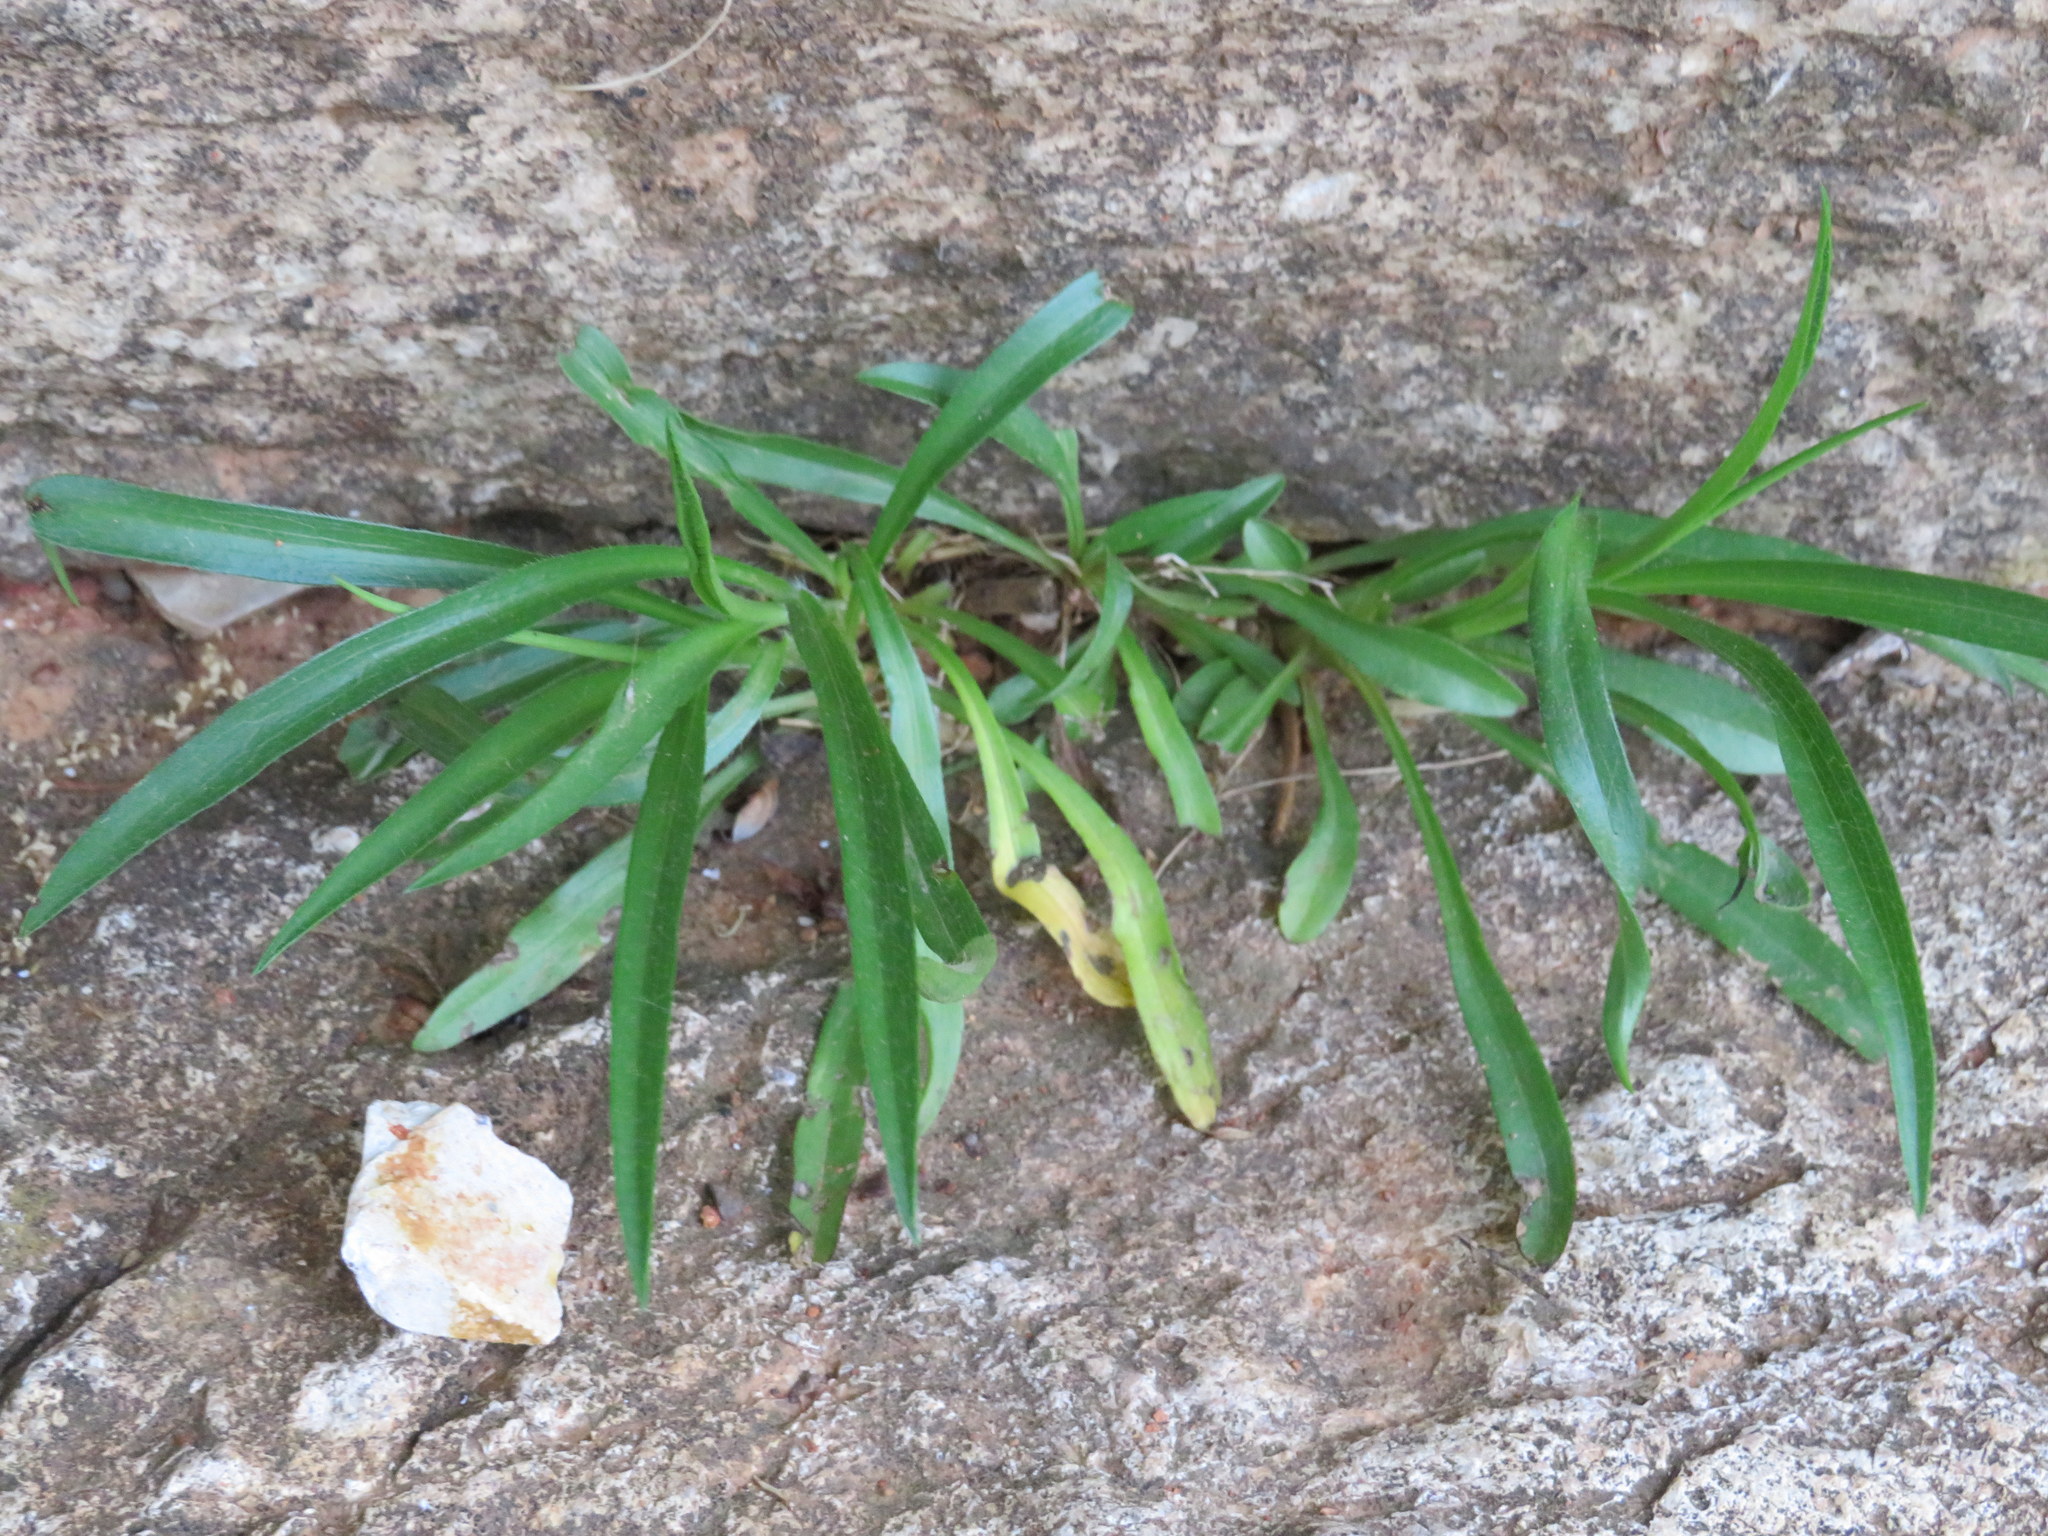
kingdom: Plantae
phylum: Tracheophyta
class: Magnoliopsida
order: Asterales
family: Asteraceae
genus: Symphyotrichum
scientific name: Symphyotrichum kentuckiense
